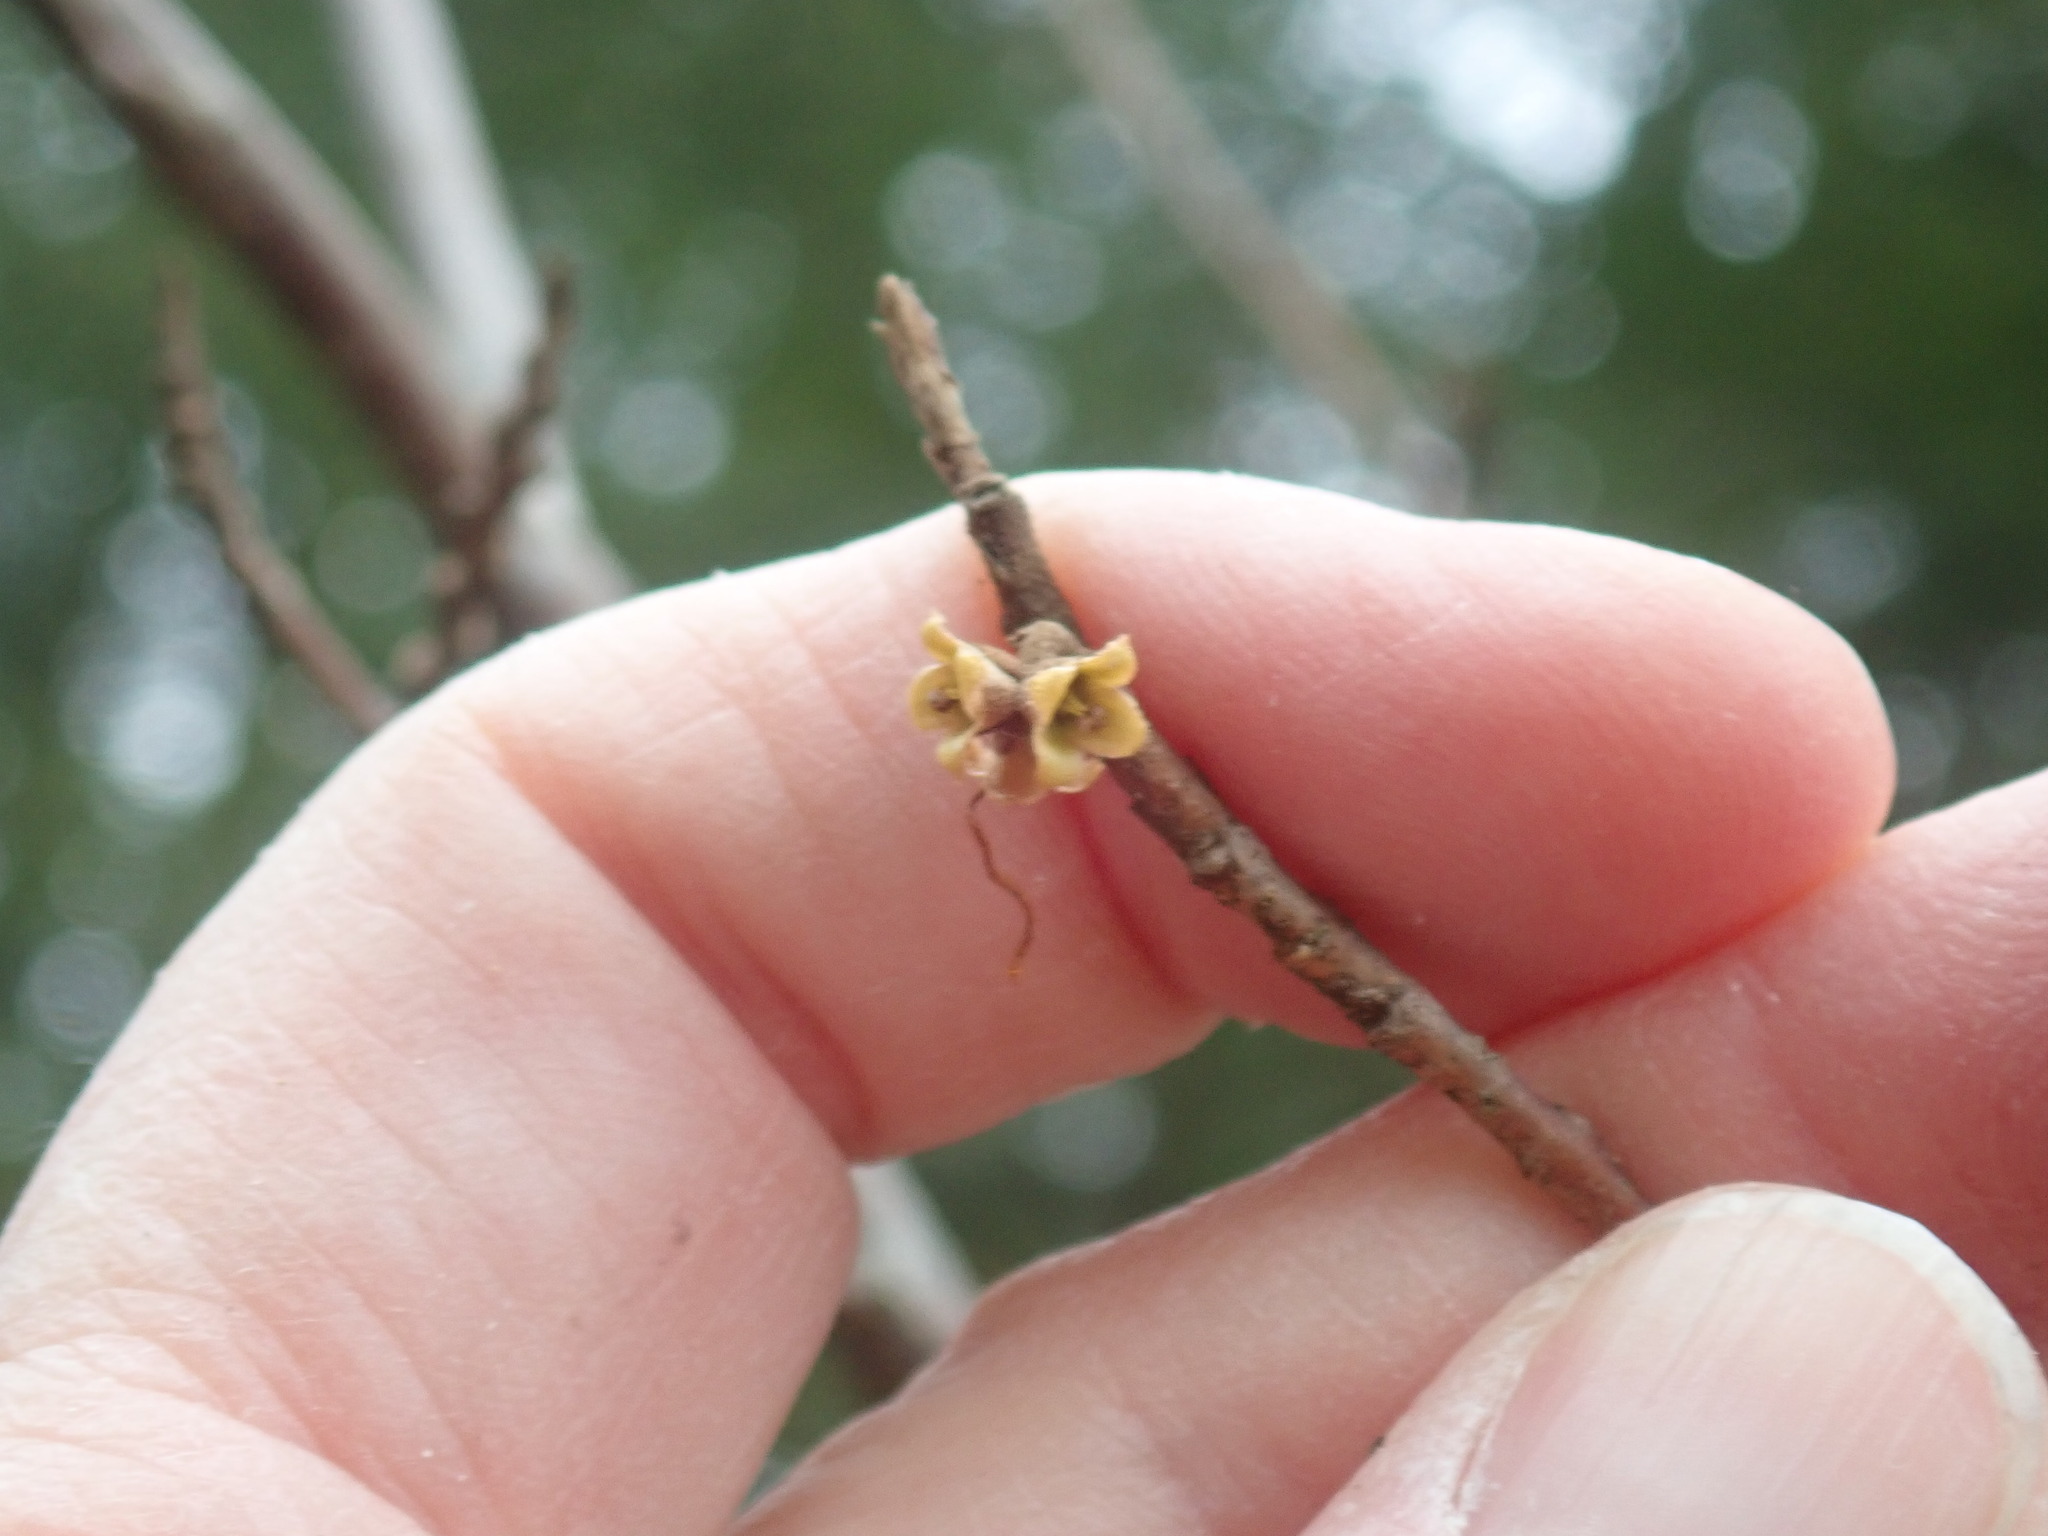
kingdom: Plantae
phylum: Tracheophyta
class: Magnoliopsida
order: Saxifragales
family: Hamamelidaceae
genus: Hamamelis
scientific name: Hamamelis virginiana
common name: Witch-hazel
